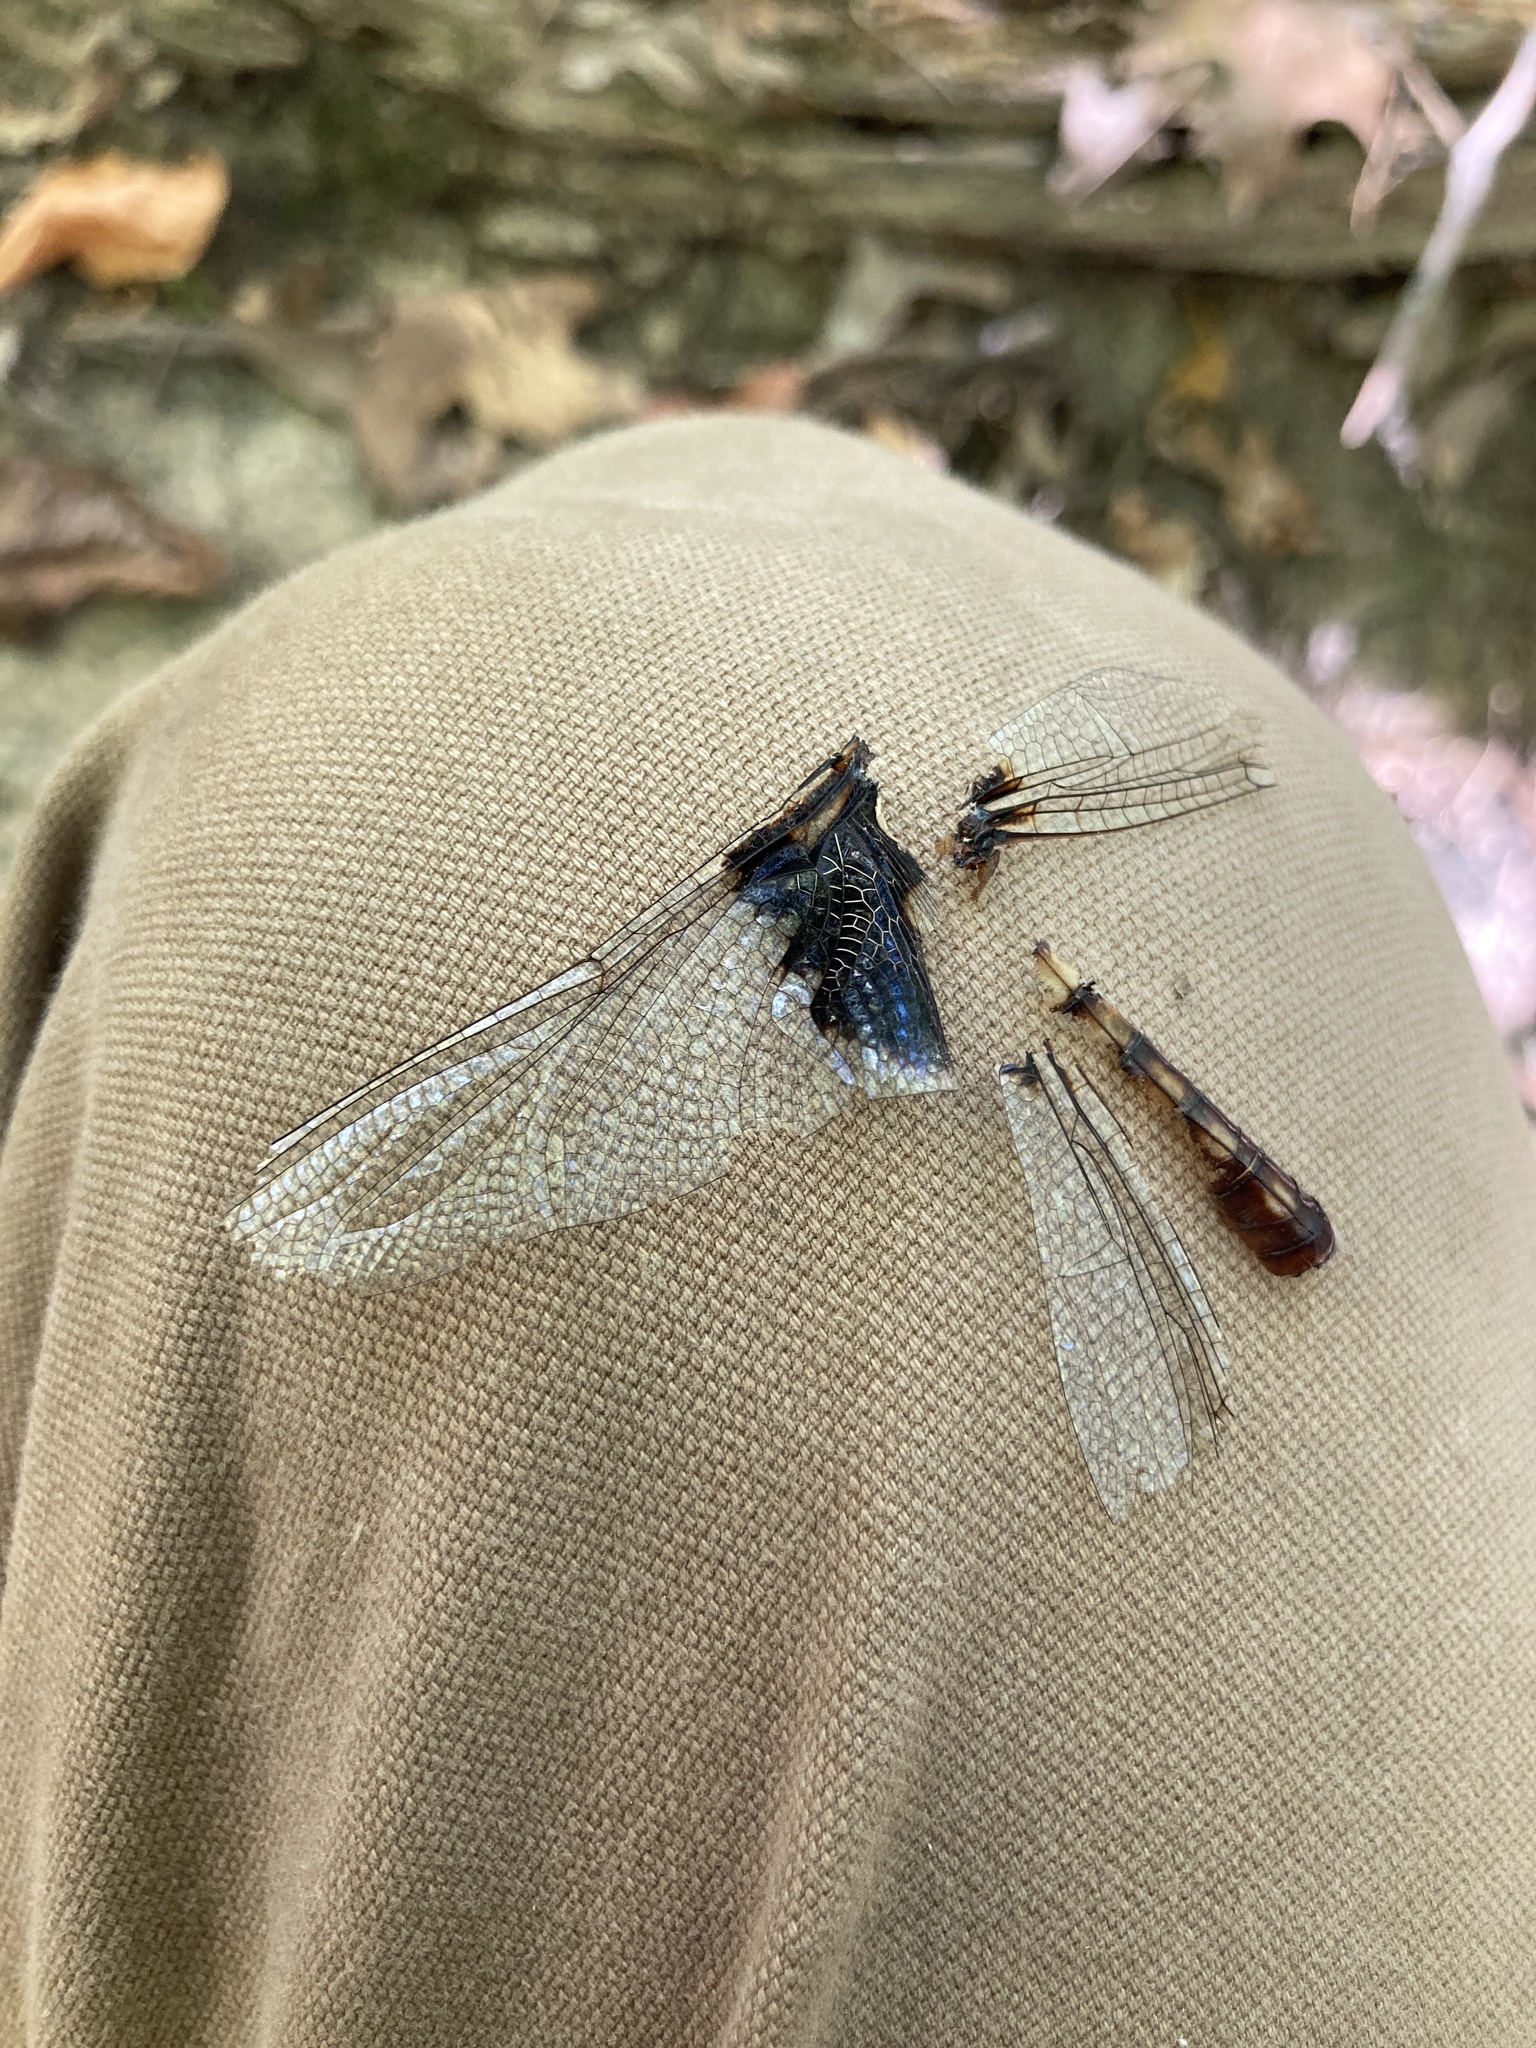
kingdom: Animalia
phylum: Arthropoda
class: Insecta
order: Odonata
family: Libellulidae
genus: Tramea
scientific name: Tramea lacerata
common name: Black saddlebags
